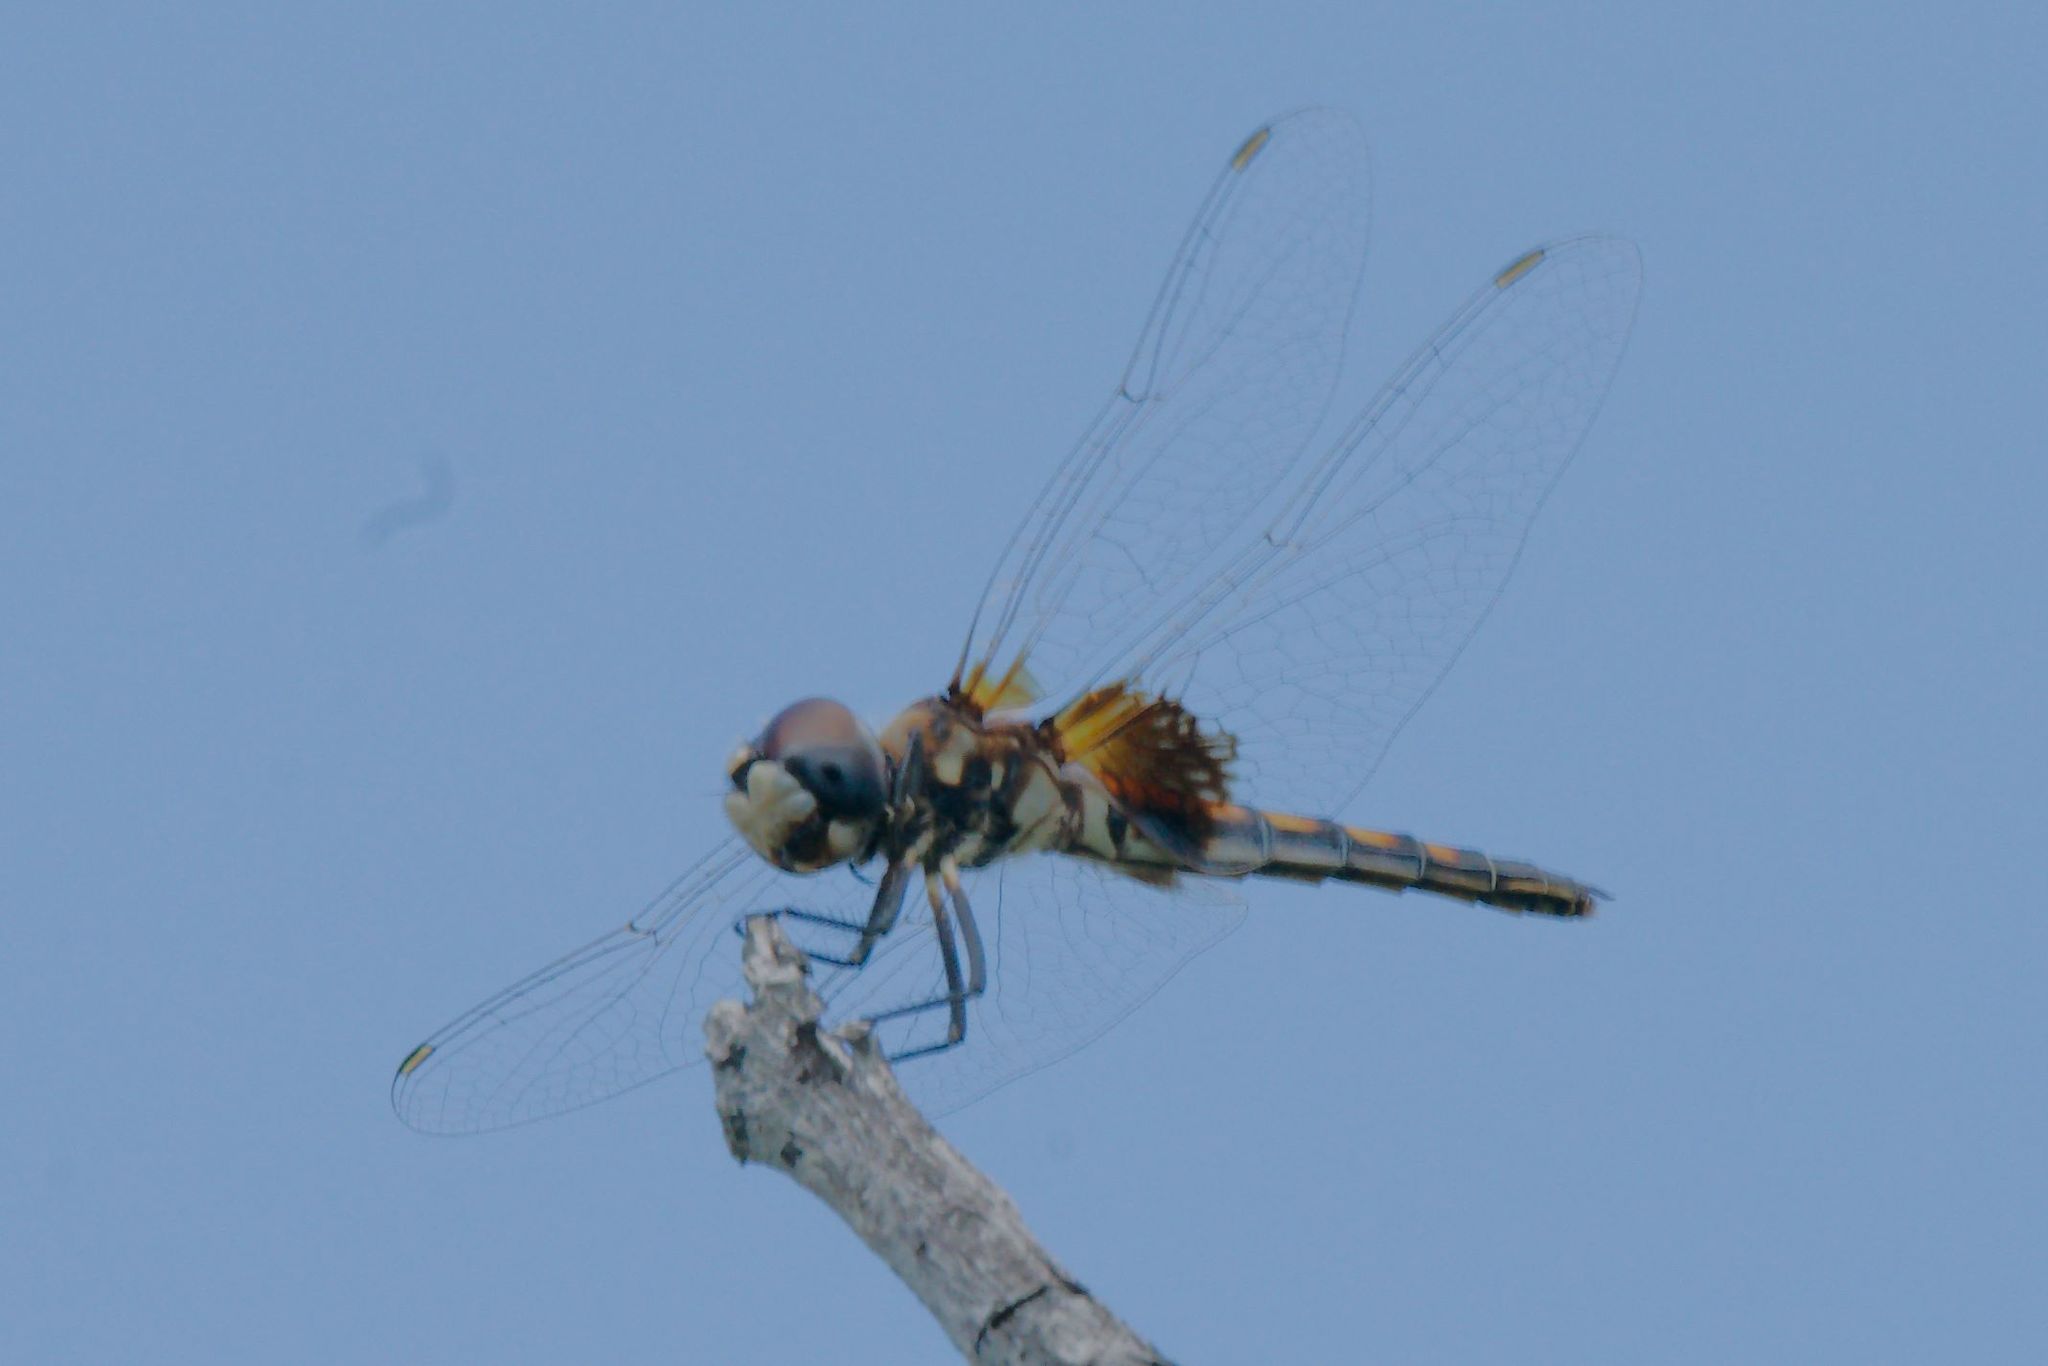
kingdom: Animalia
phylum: Arthropoda
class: Insecta
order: Odonata
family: Libellulidae
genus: Macrodiplax
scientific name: Macrodiplax balteata
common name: Marl pennant
